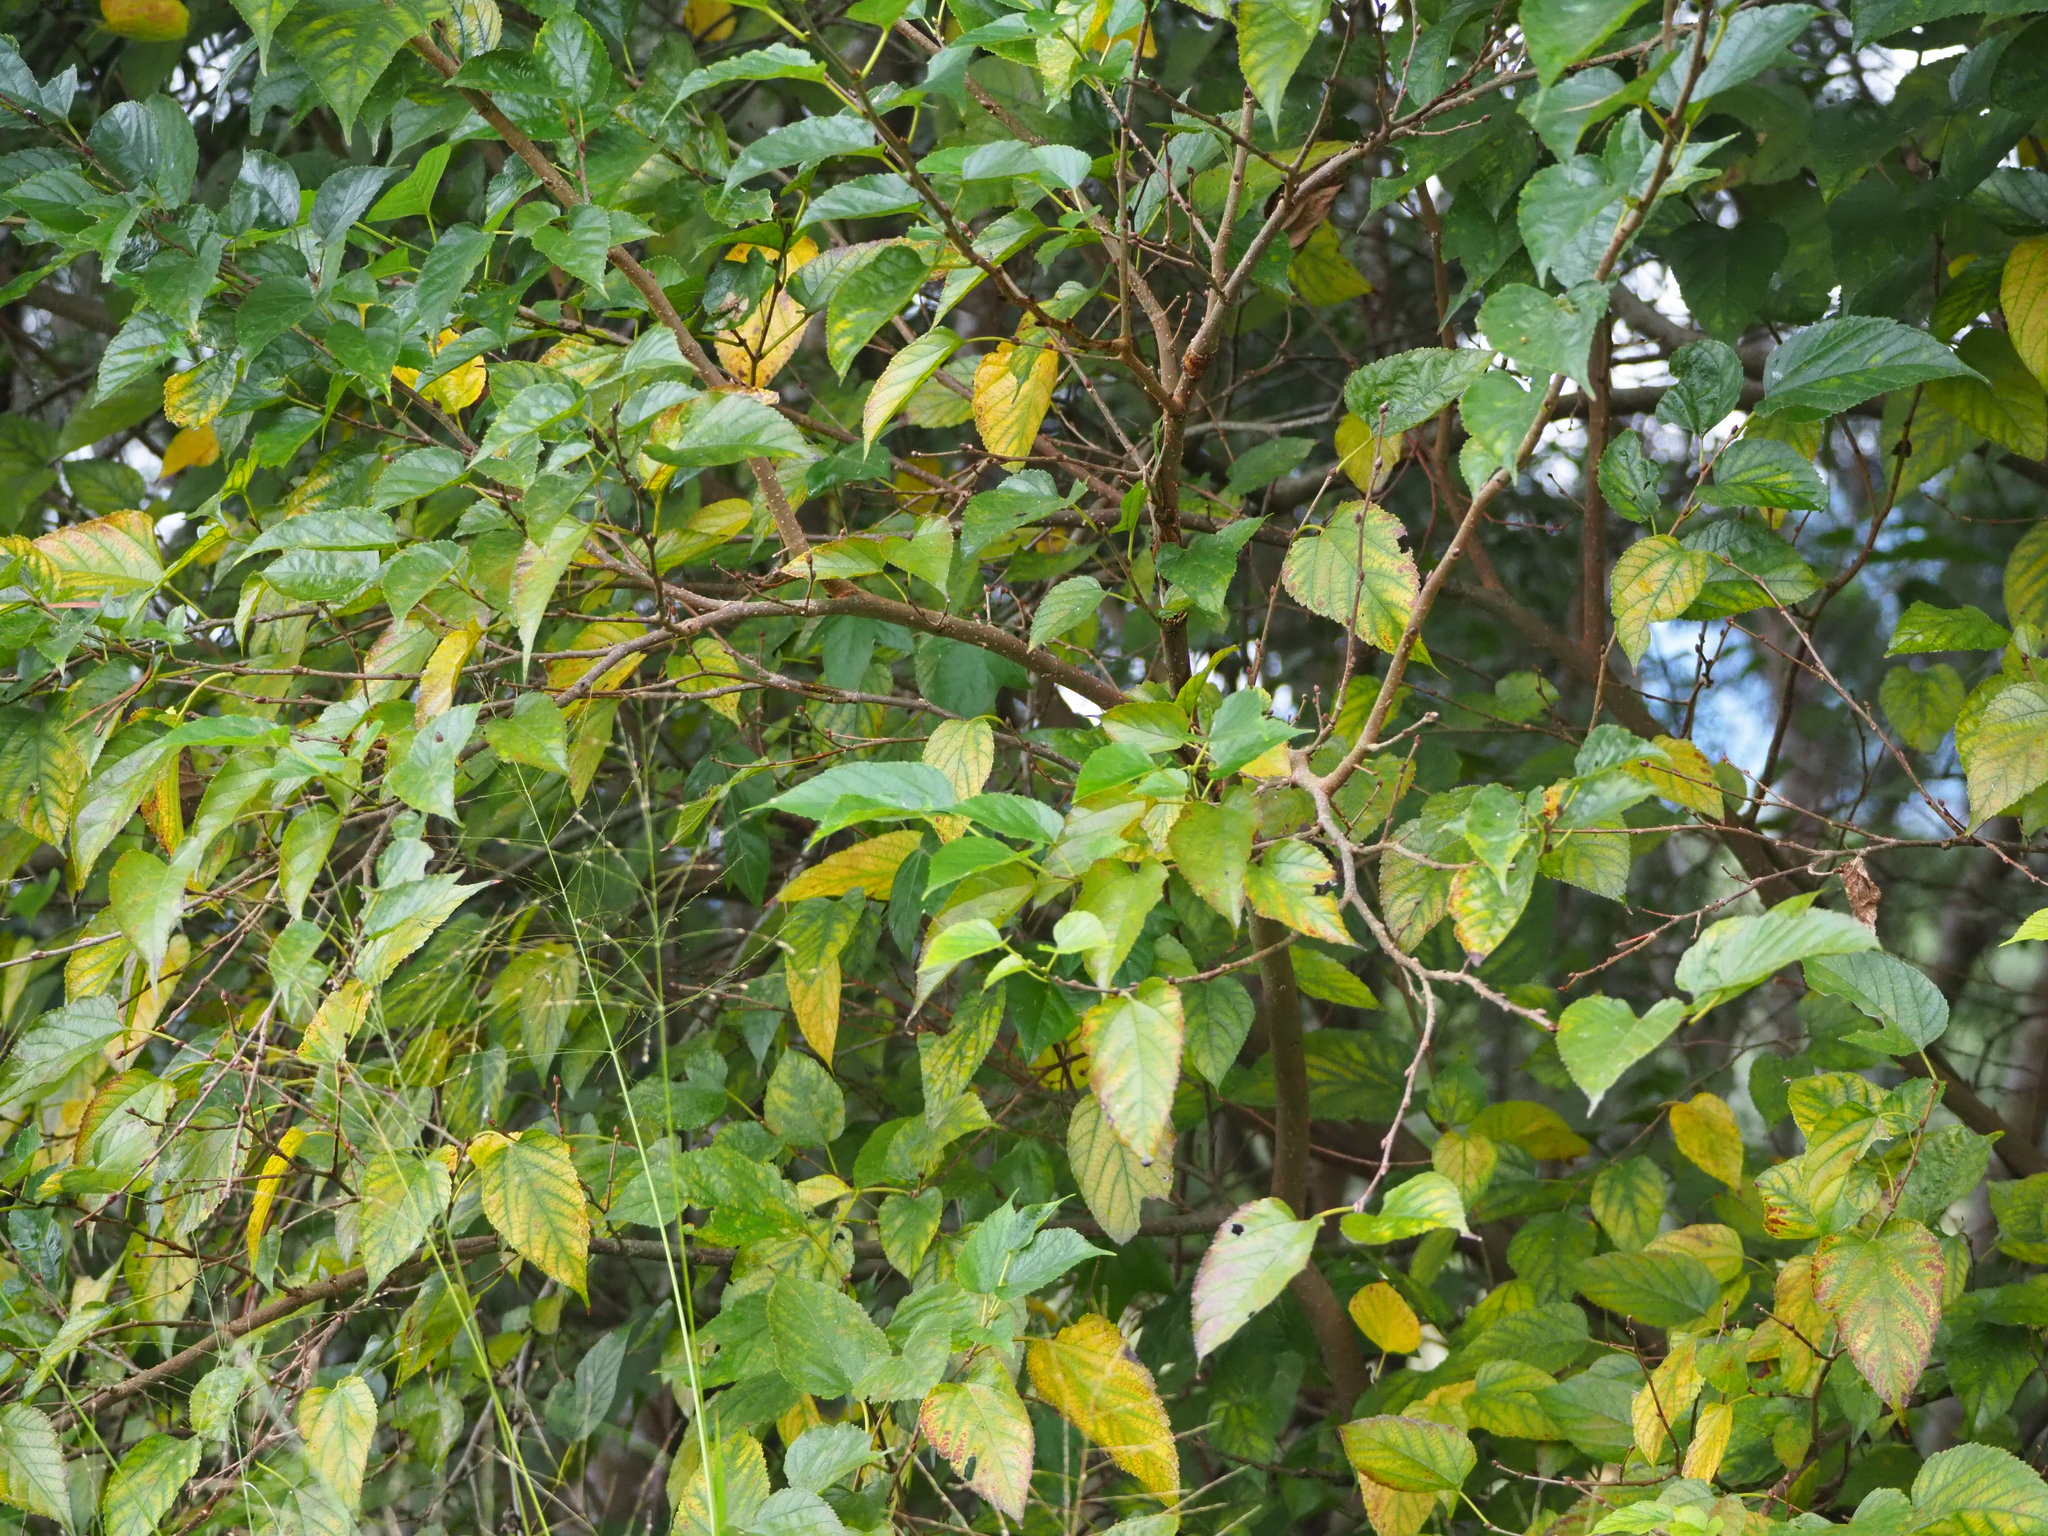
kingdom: Plantae
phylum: Tracheophyta
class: Magnoliopsida
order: Rosales
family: Moraceae
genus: Morus
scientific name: Morus indica
